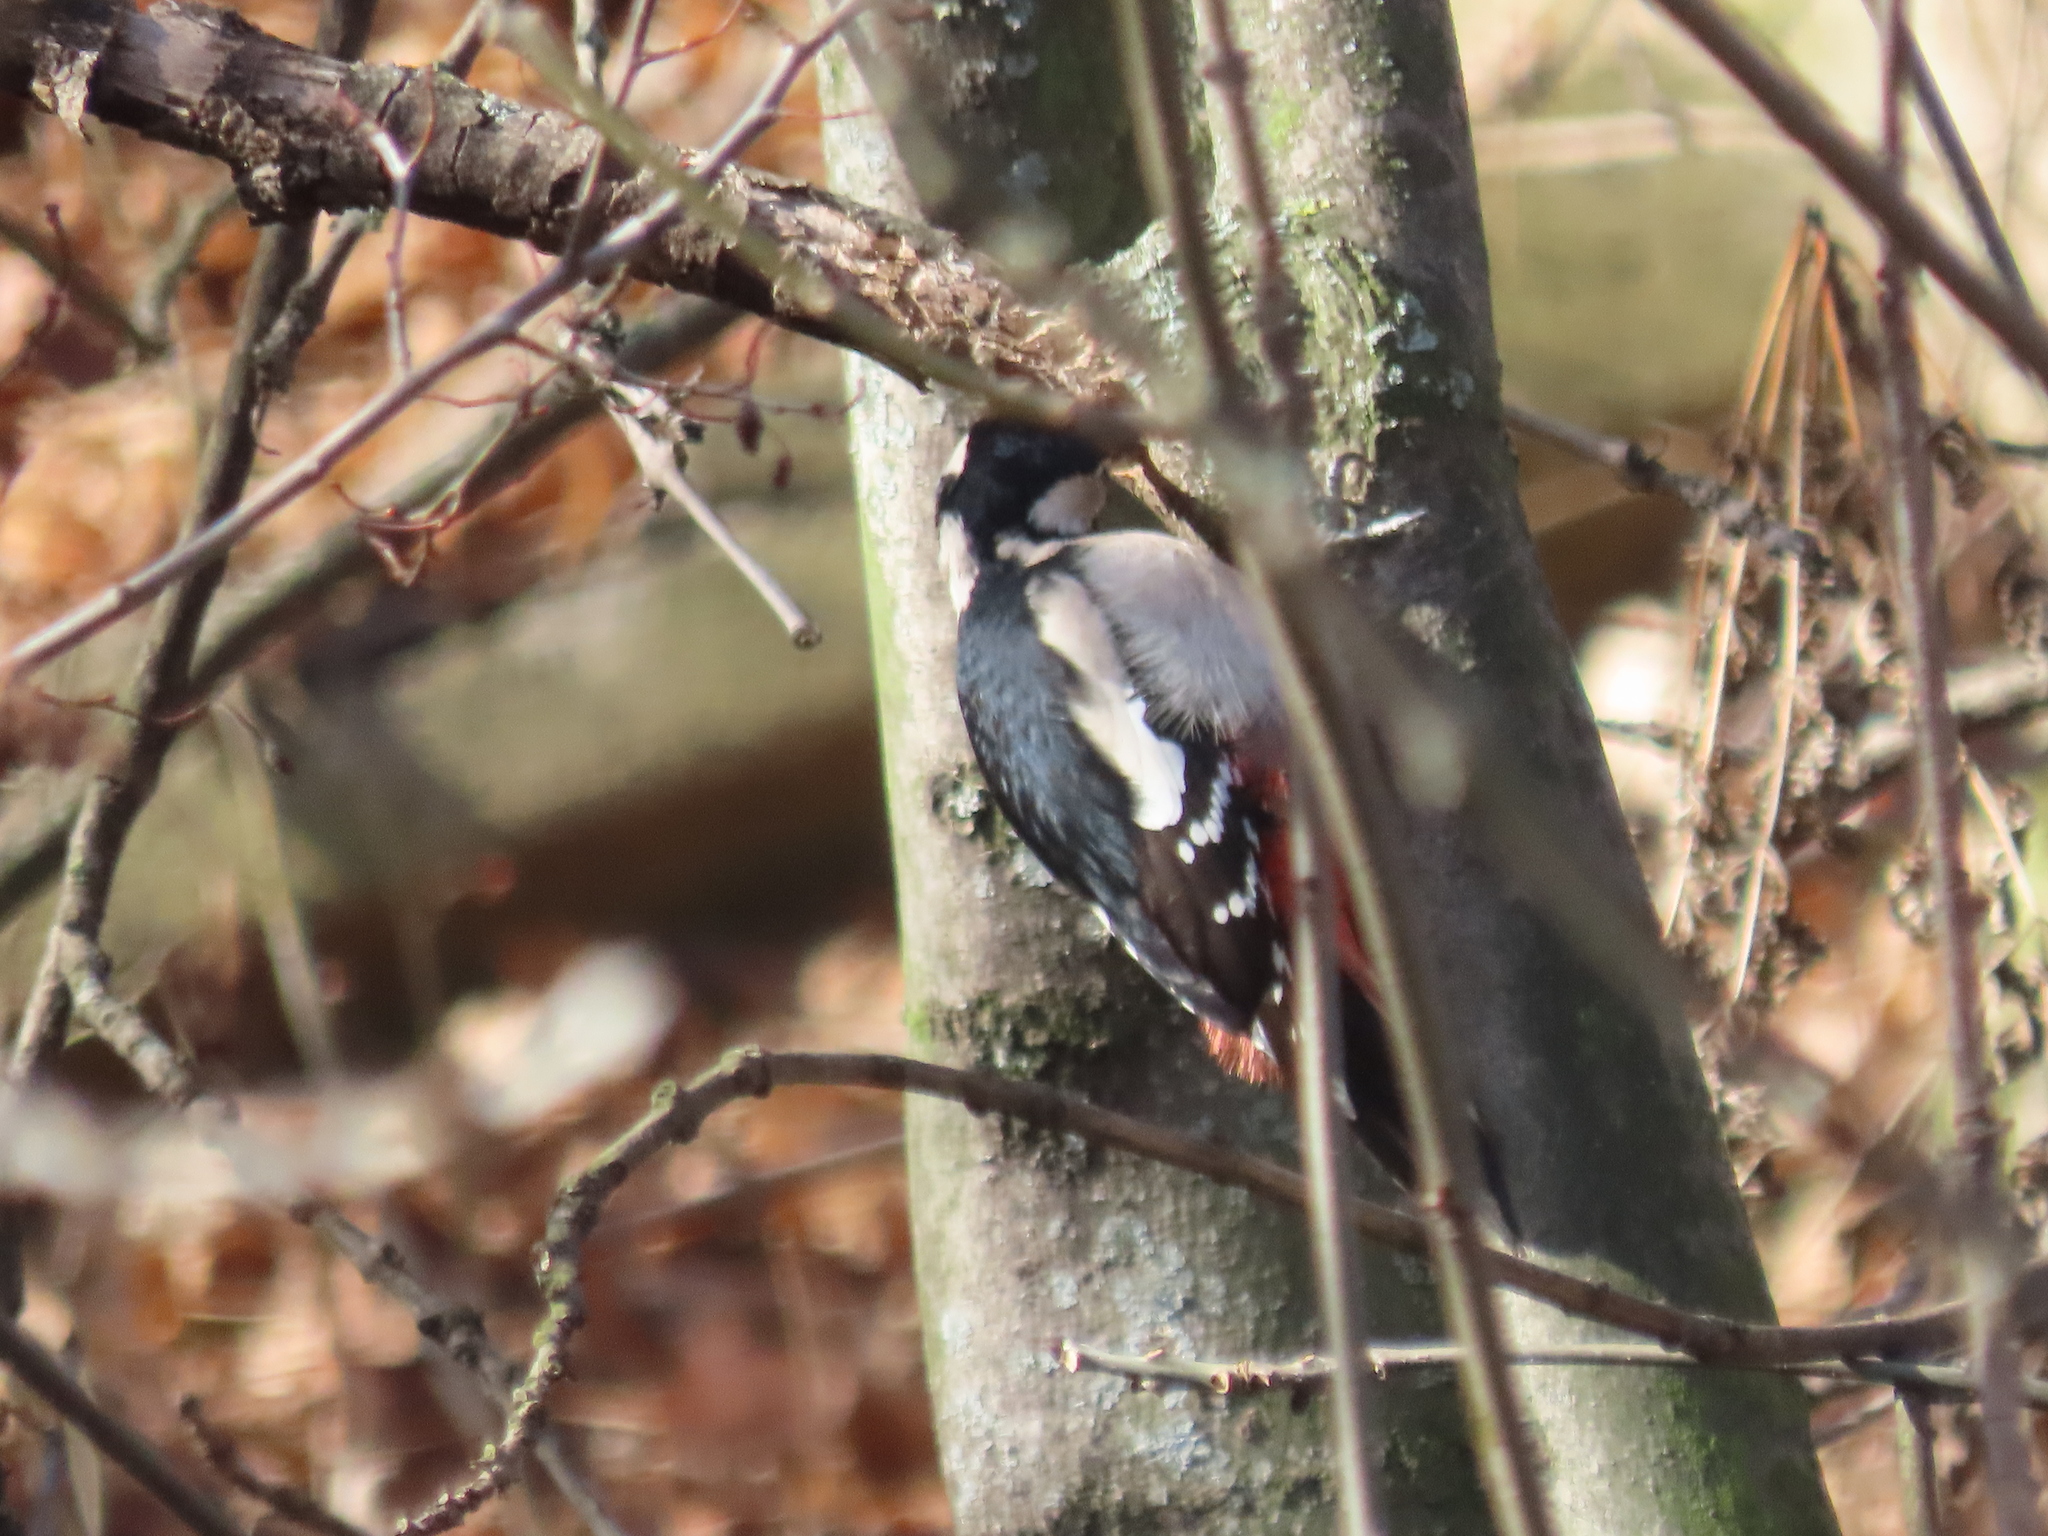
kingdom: Animalia
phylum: Chordata
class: Aves
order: Piciformes
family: Picidae
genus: Dendrocopos
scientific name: Dendrocopos major
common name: Great spotted woodpecker
